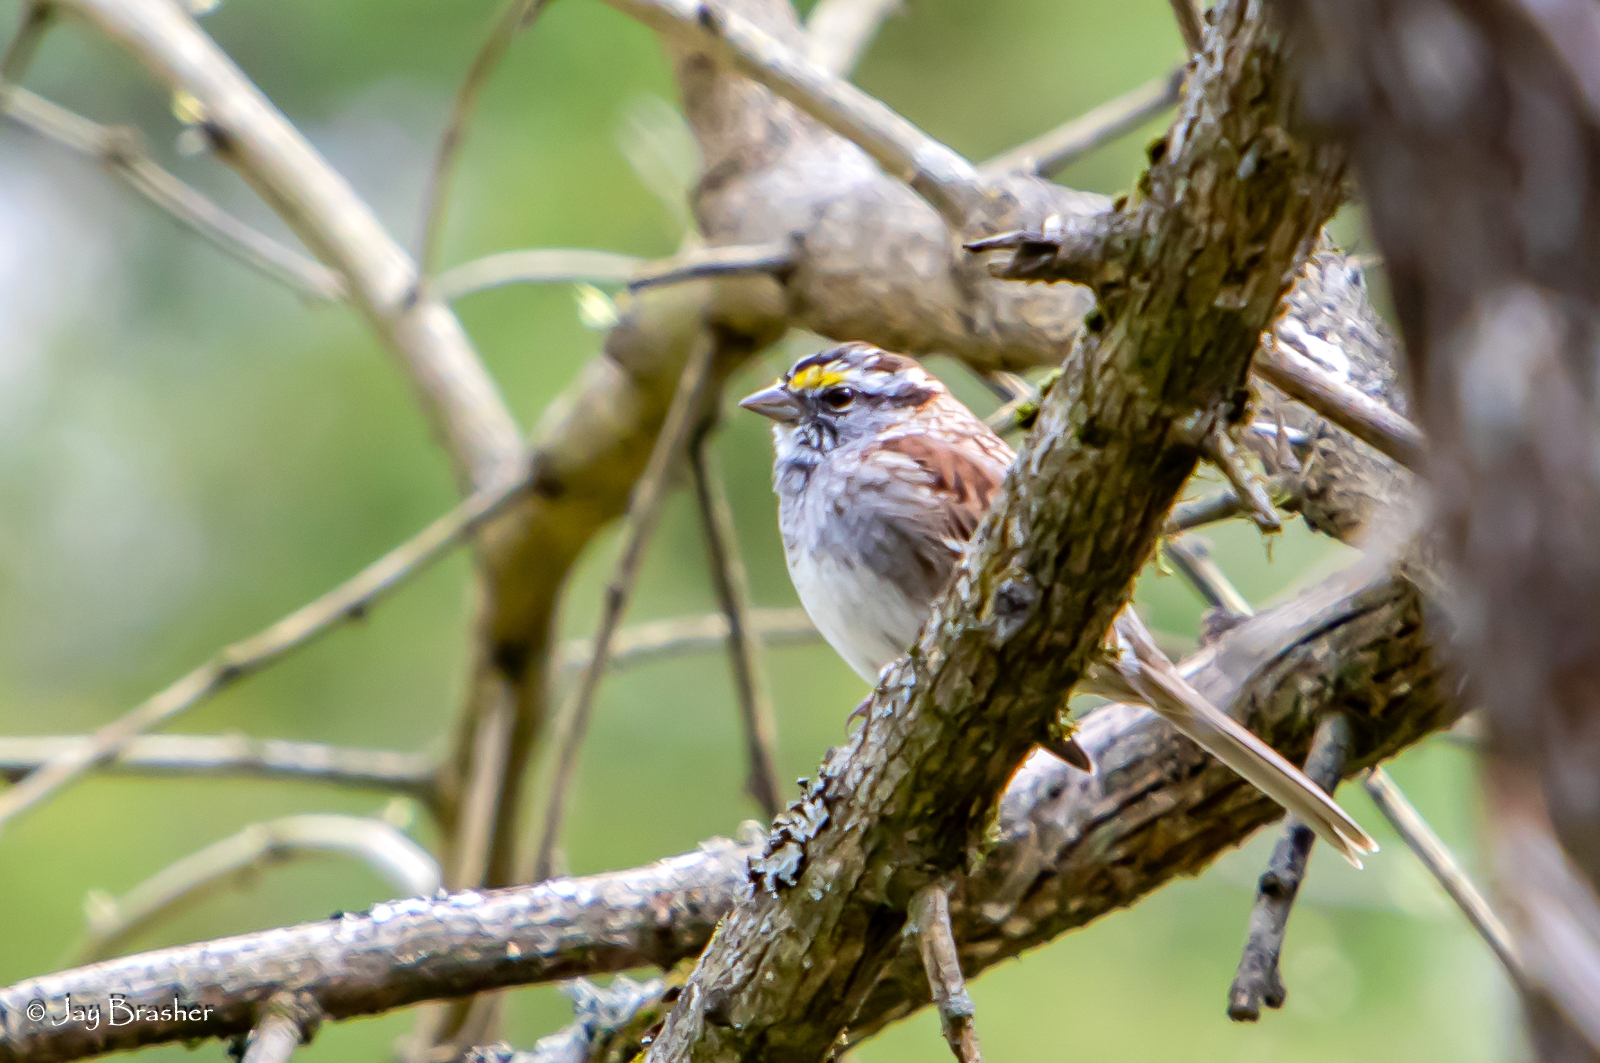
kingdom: Animalia
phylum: Chordata
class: Aves
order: Passeriformes
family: Passerellidae
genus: Zonotrichia
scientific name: Zonotrichia albicollis
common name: White-throated sparrow
